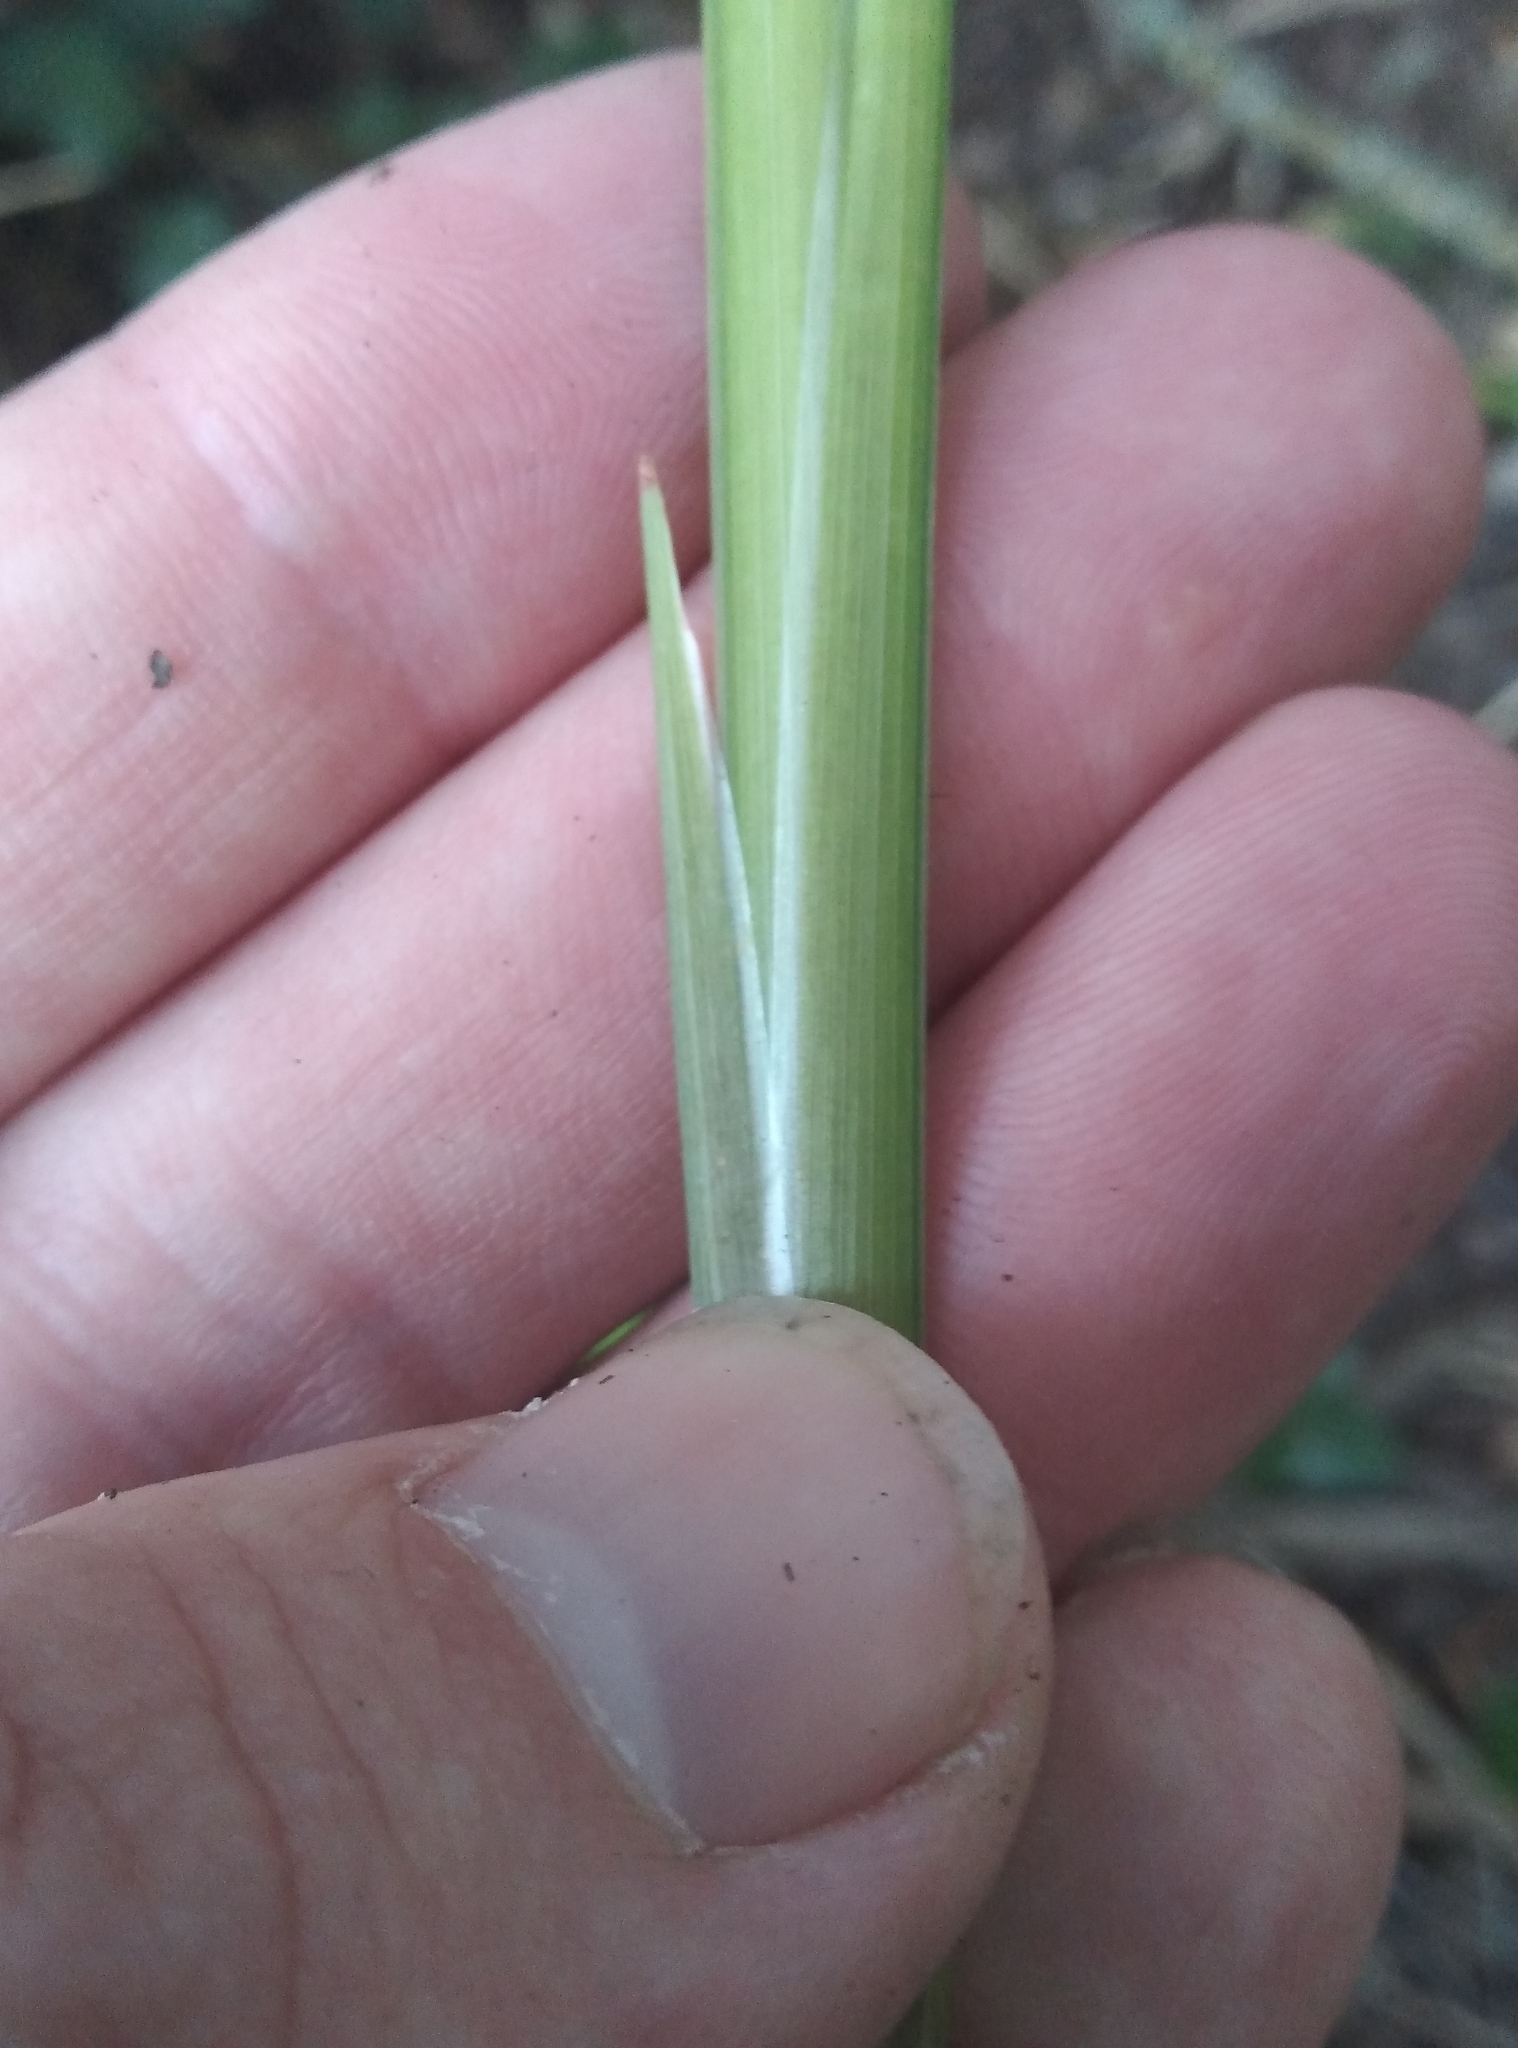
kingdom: Plantae
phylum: Tracheophyta
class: Liliopsida
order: Asparagales
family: Iridaceae
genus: Crocosmia
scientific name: Crocosmia crocosmiiflora
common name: Montbretia
